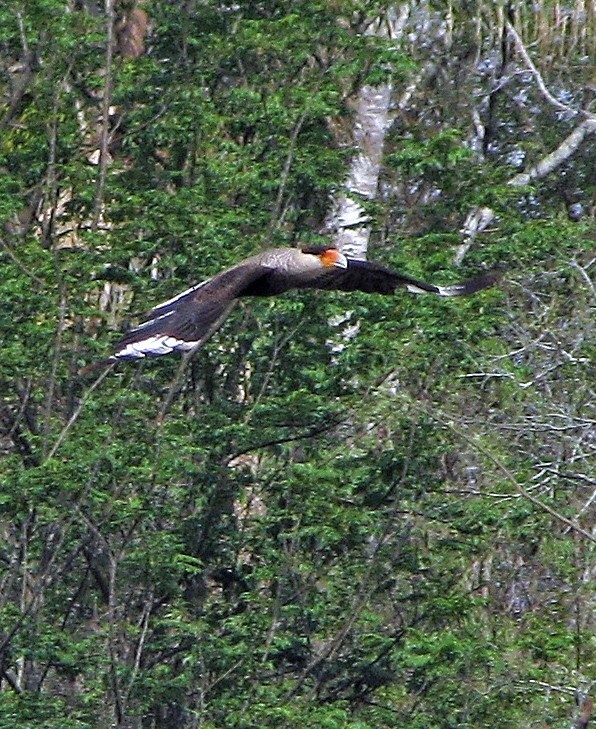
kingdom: Animalia
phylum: Chordata
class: Aves
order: Falconiformes
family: Falconidae
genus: Caracara
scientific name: Caracara plancus
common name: Southern caracara
